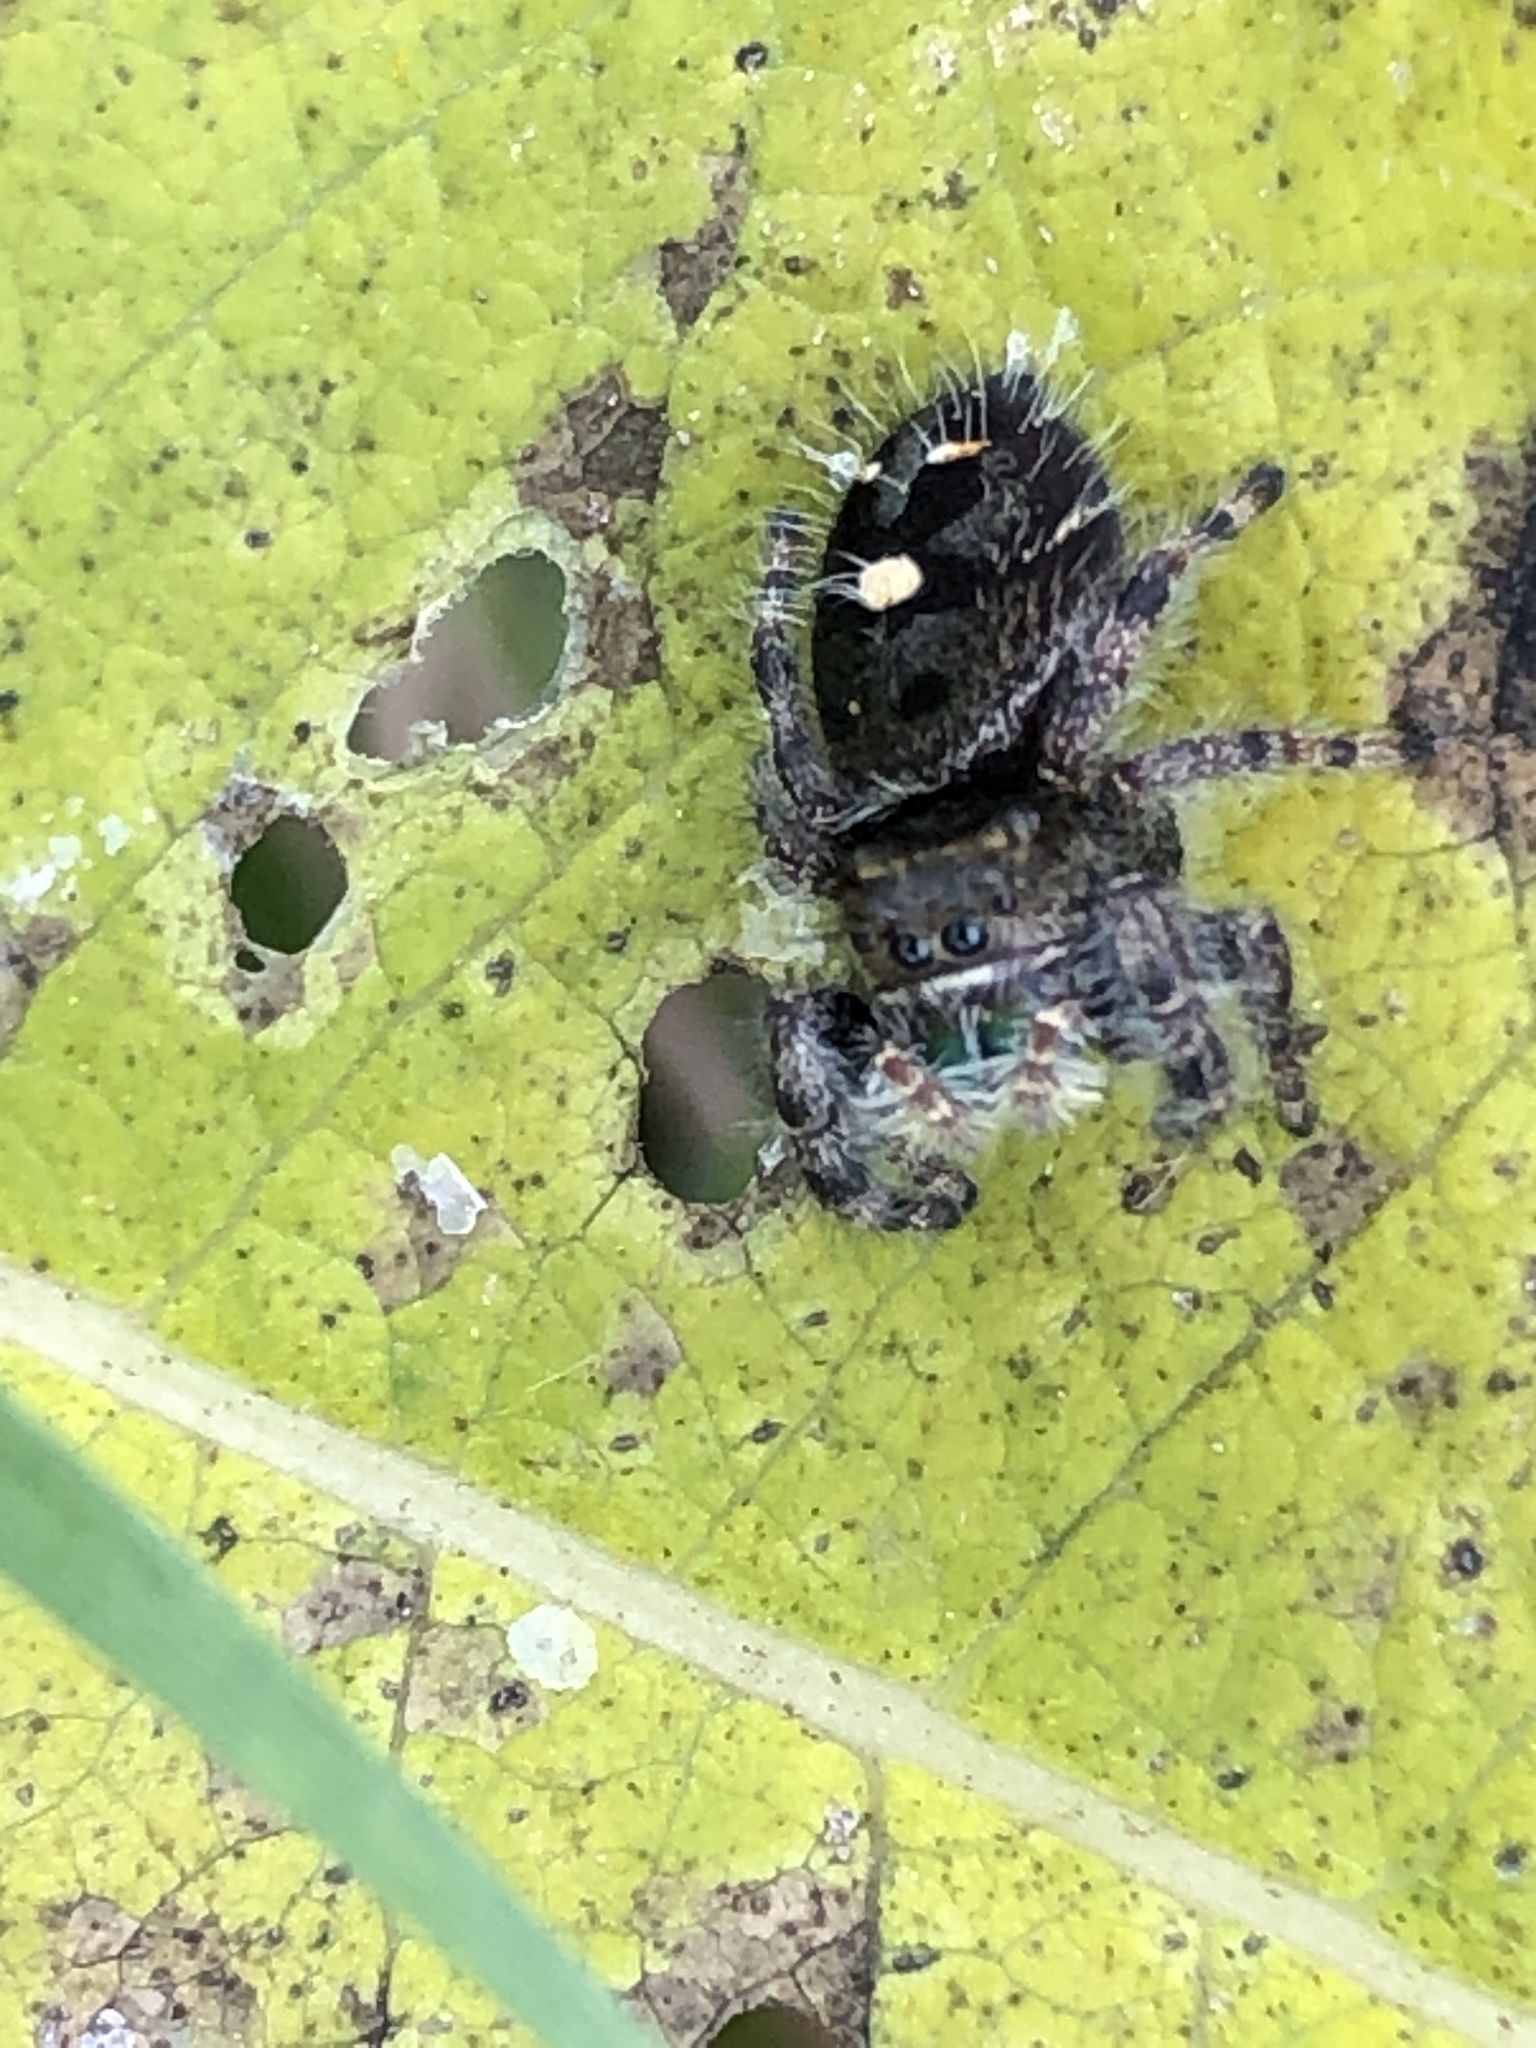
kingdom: Animalia
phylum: Arthropoda
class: Arachnida
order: Araneae
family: Salticidae
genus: Phidippus
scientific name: Phidippus audax
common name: Bold jumper
